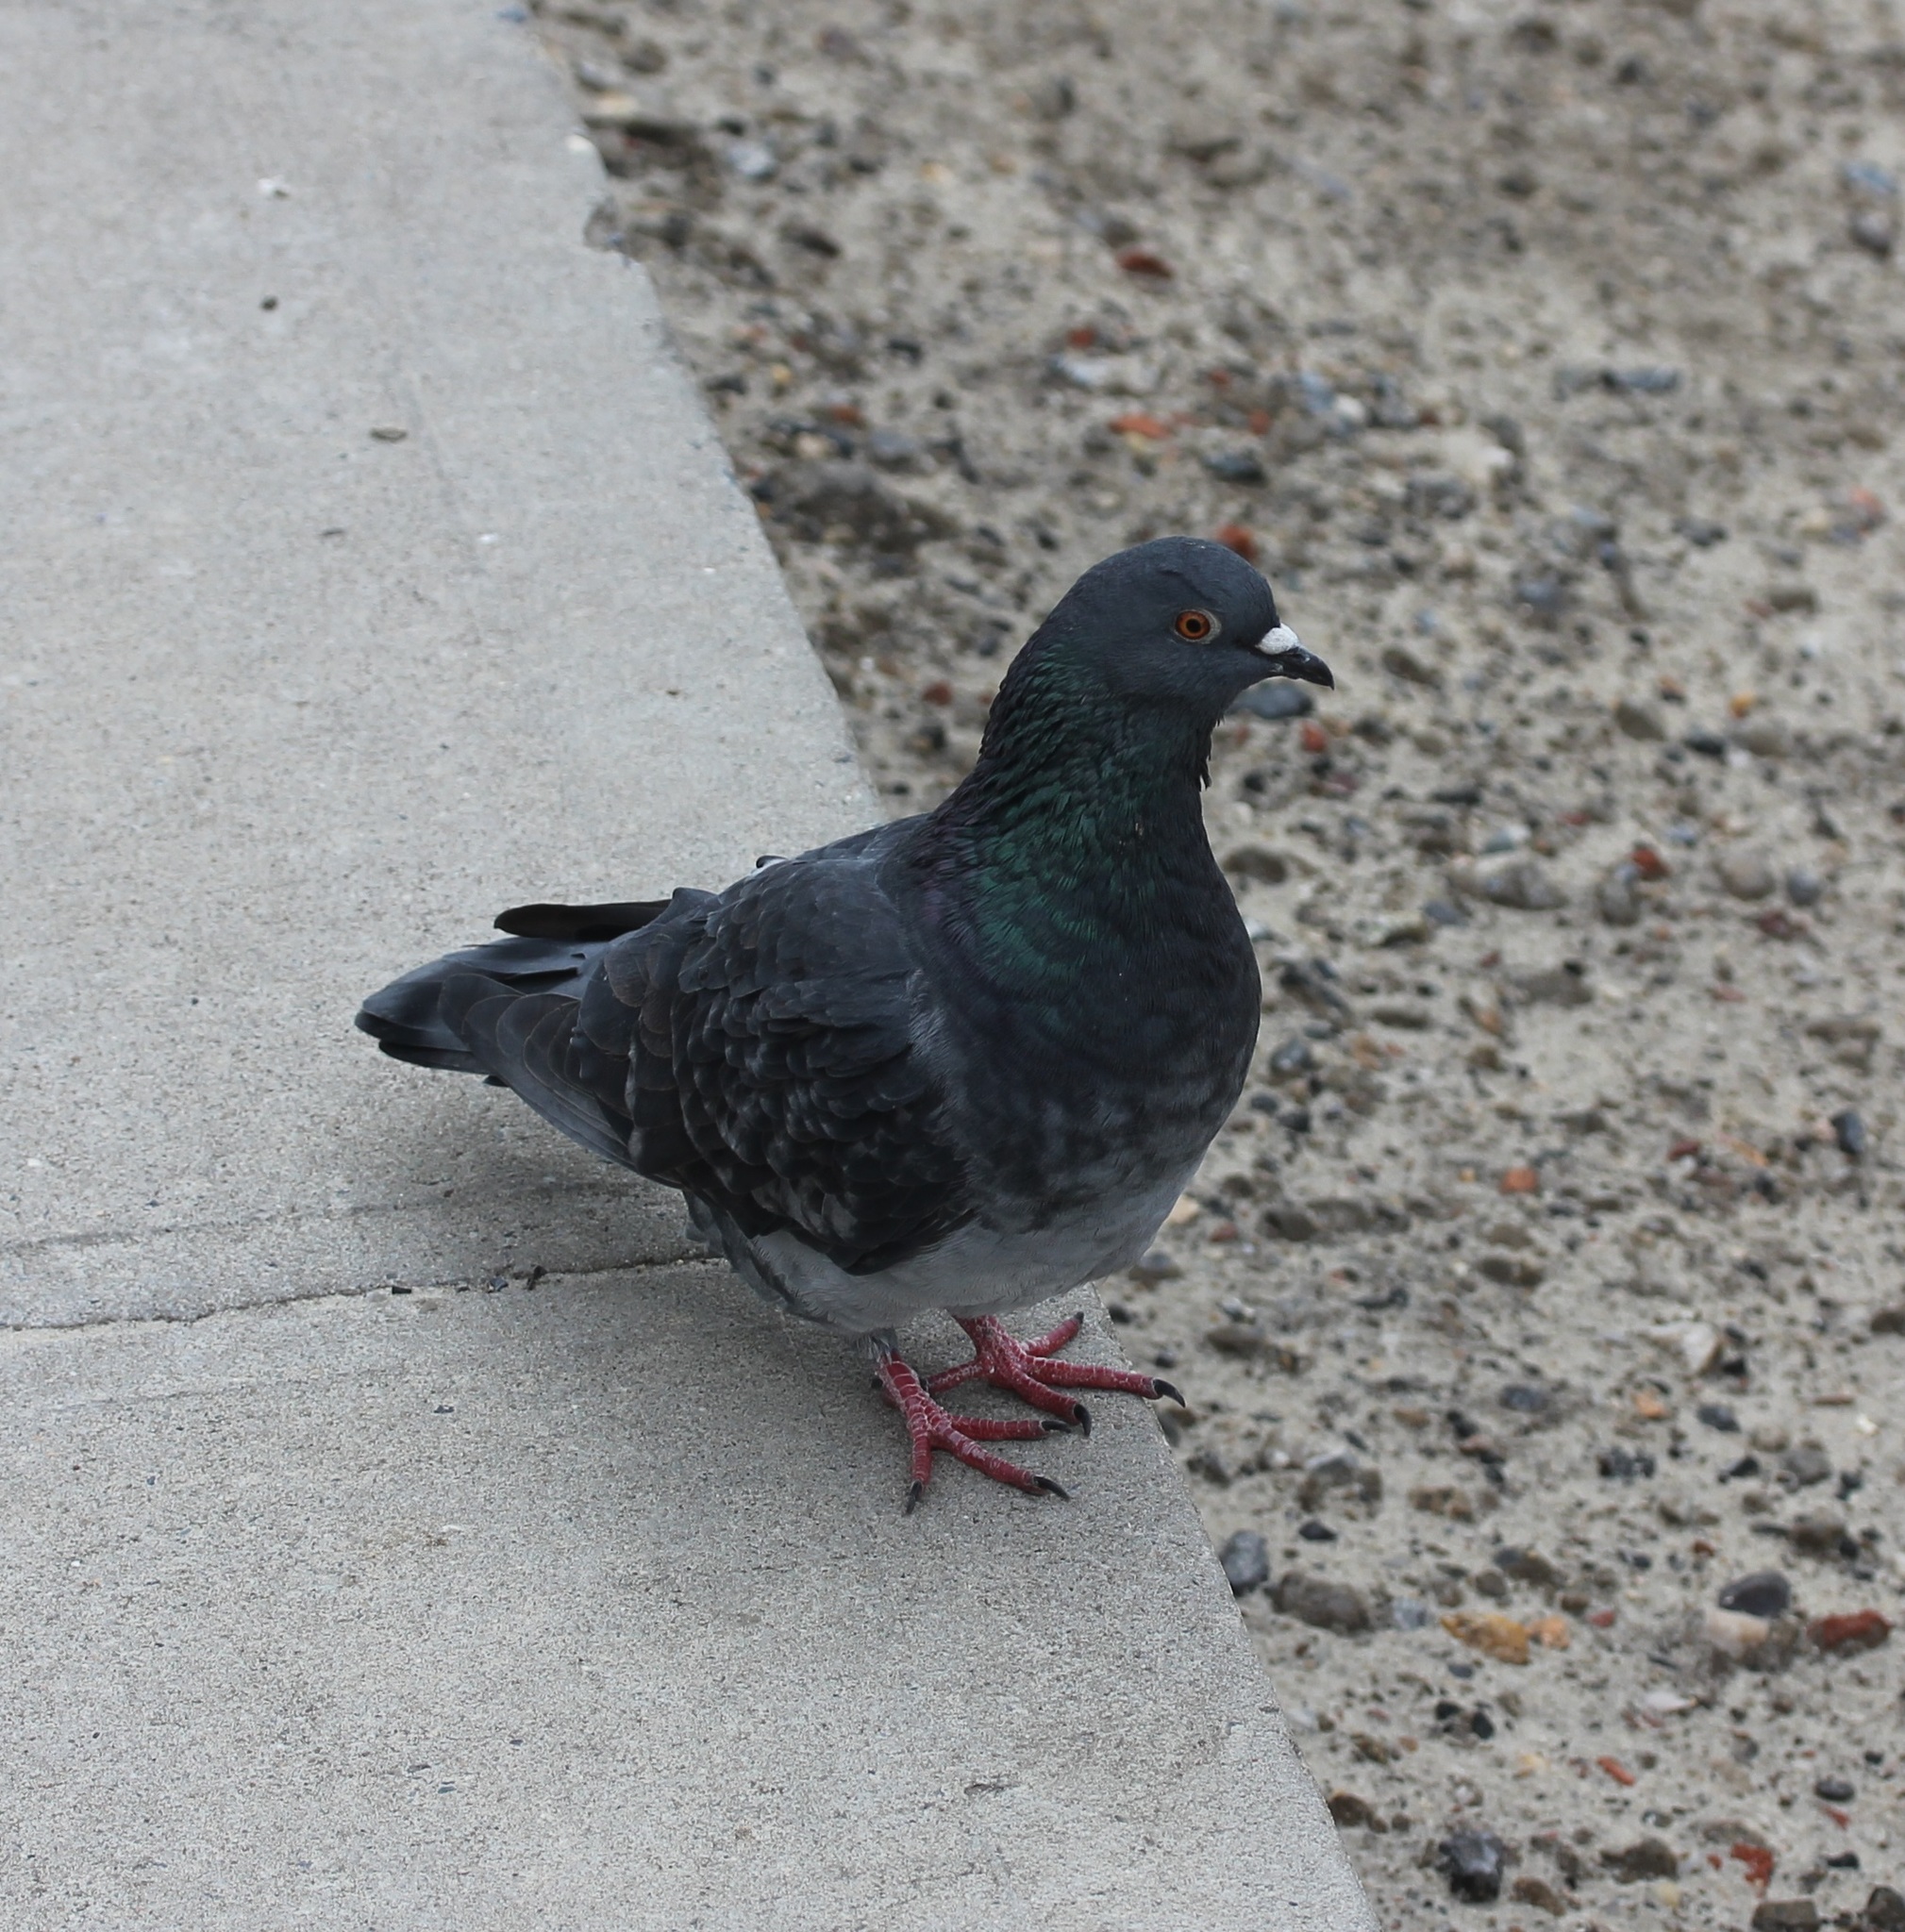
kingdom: Animalia
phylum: Chordata
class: Aves
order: Columbiformes
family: Columbidae
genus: Columba
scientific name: Columba livia
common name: Rock pigeon
